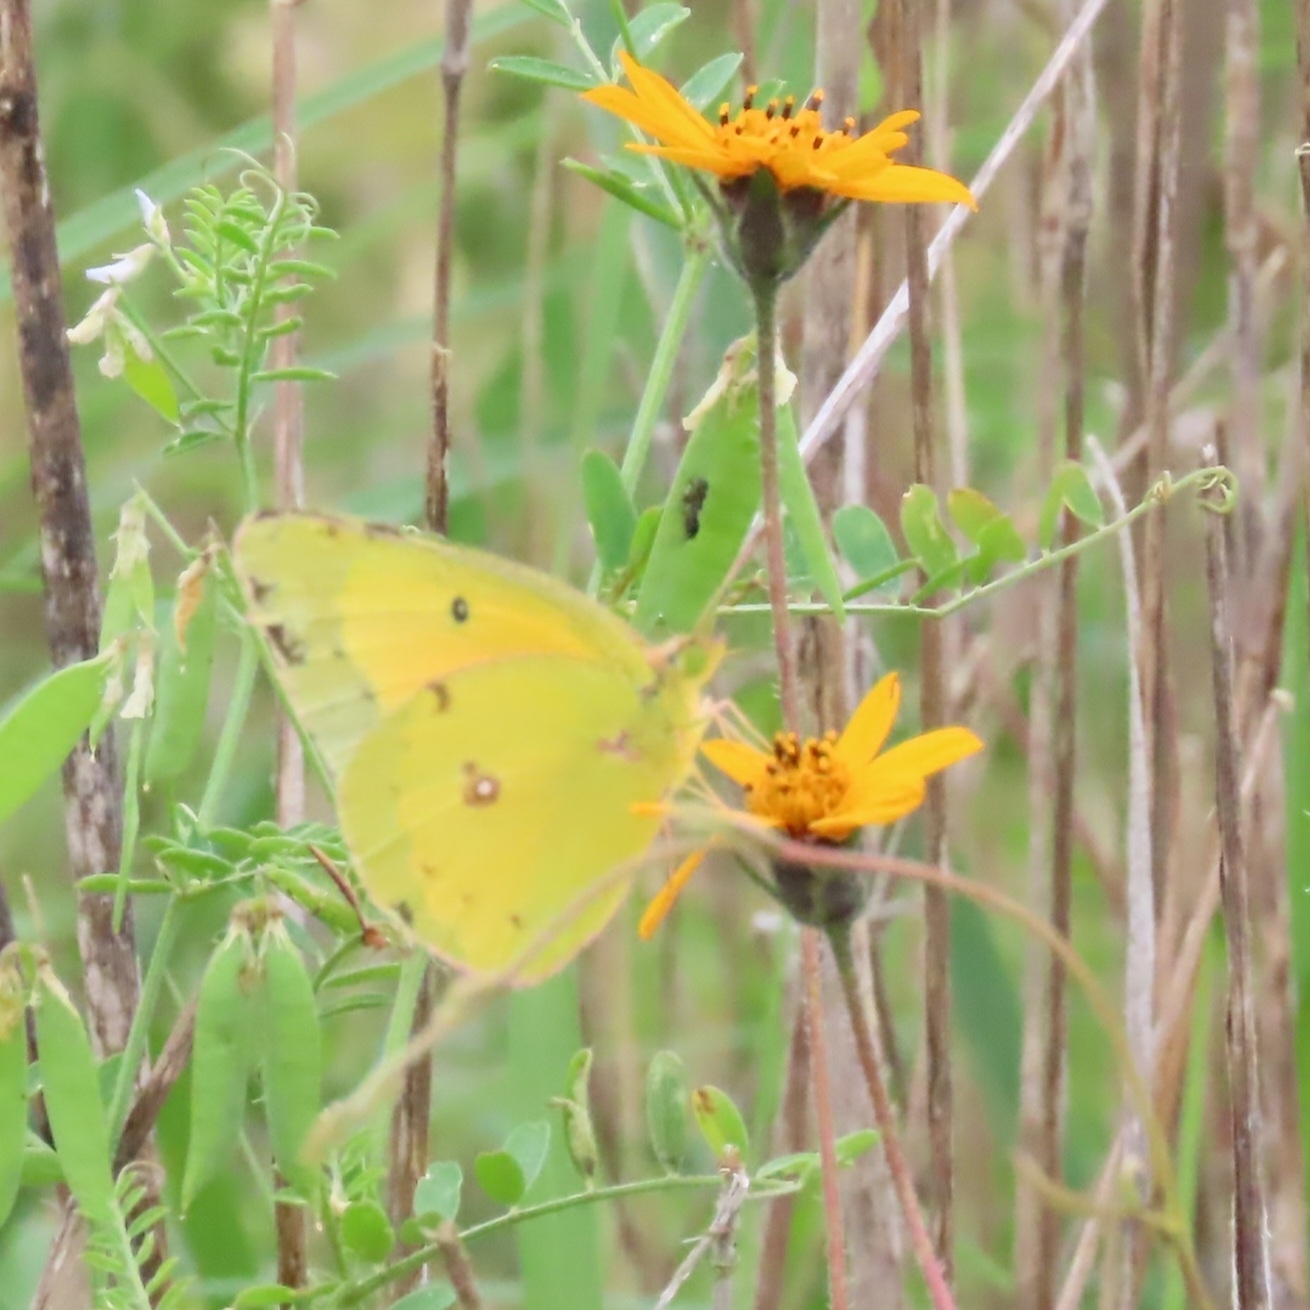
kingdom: Animalia
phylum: Arthropoda
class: Insecta
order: Lepidoptera
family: Pieridae
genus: Colias
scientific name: Colias eurytheme
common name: Alfalfa butterfly
